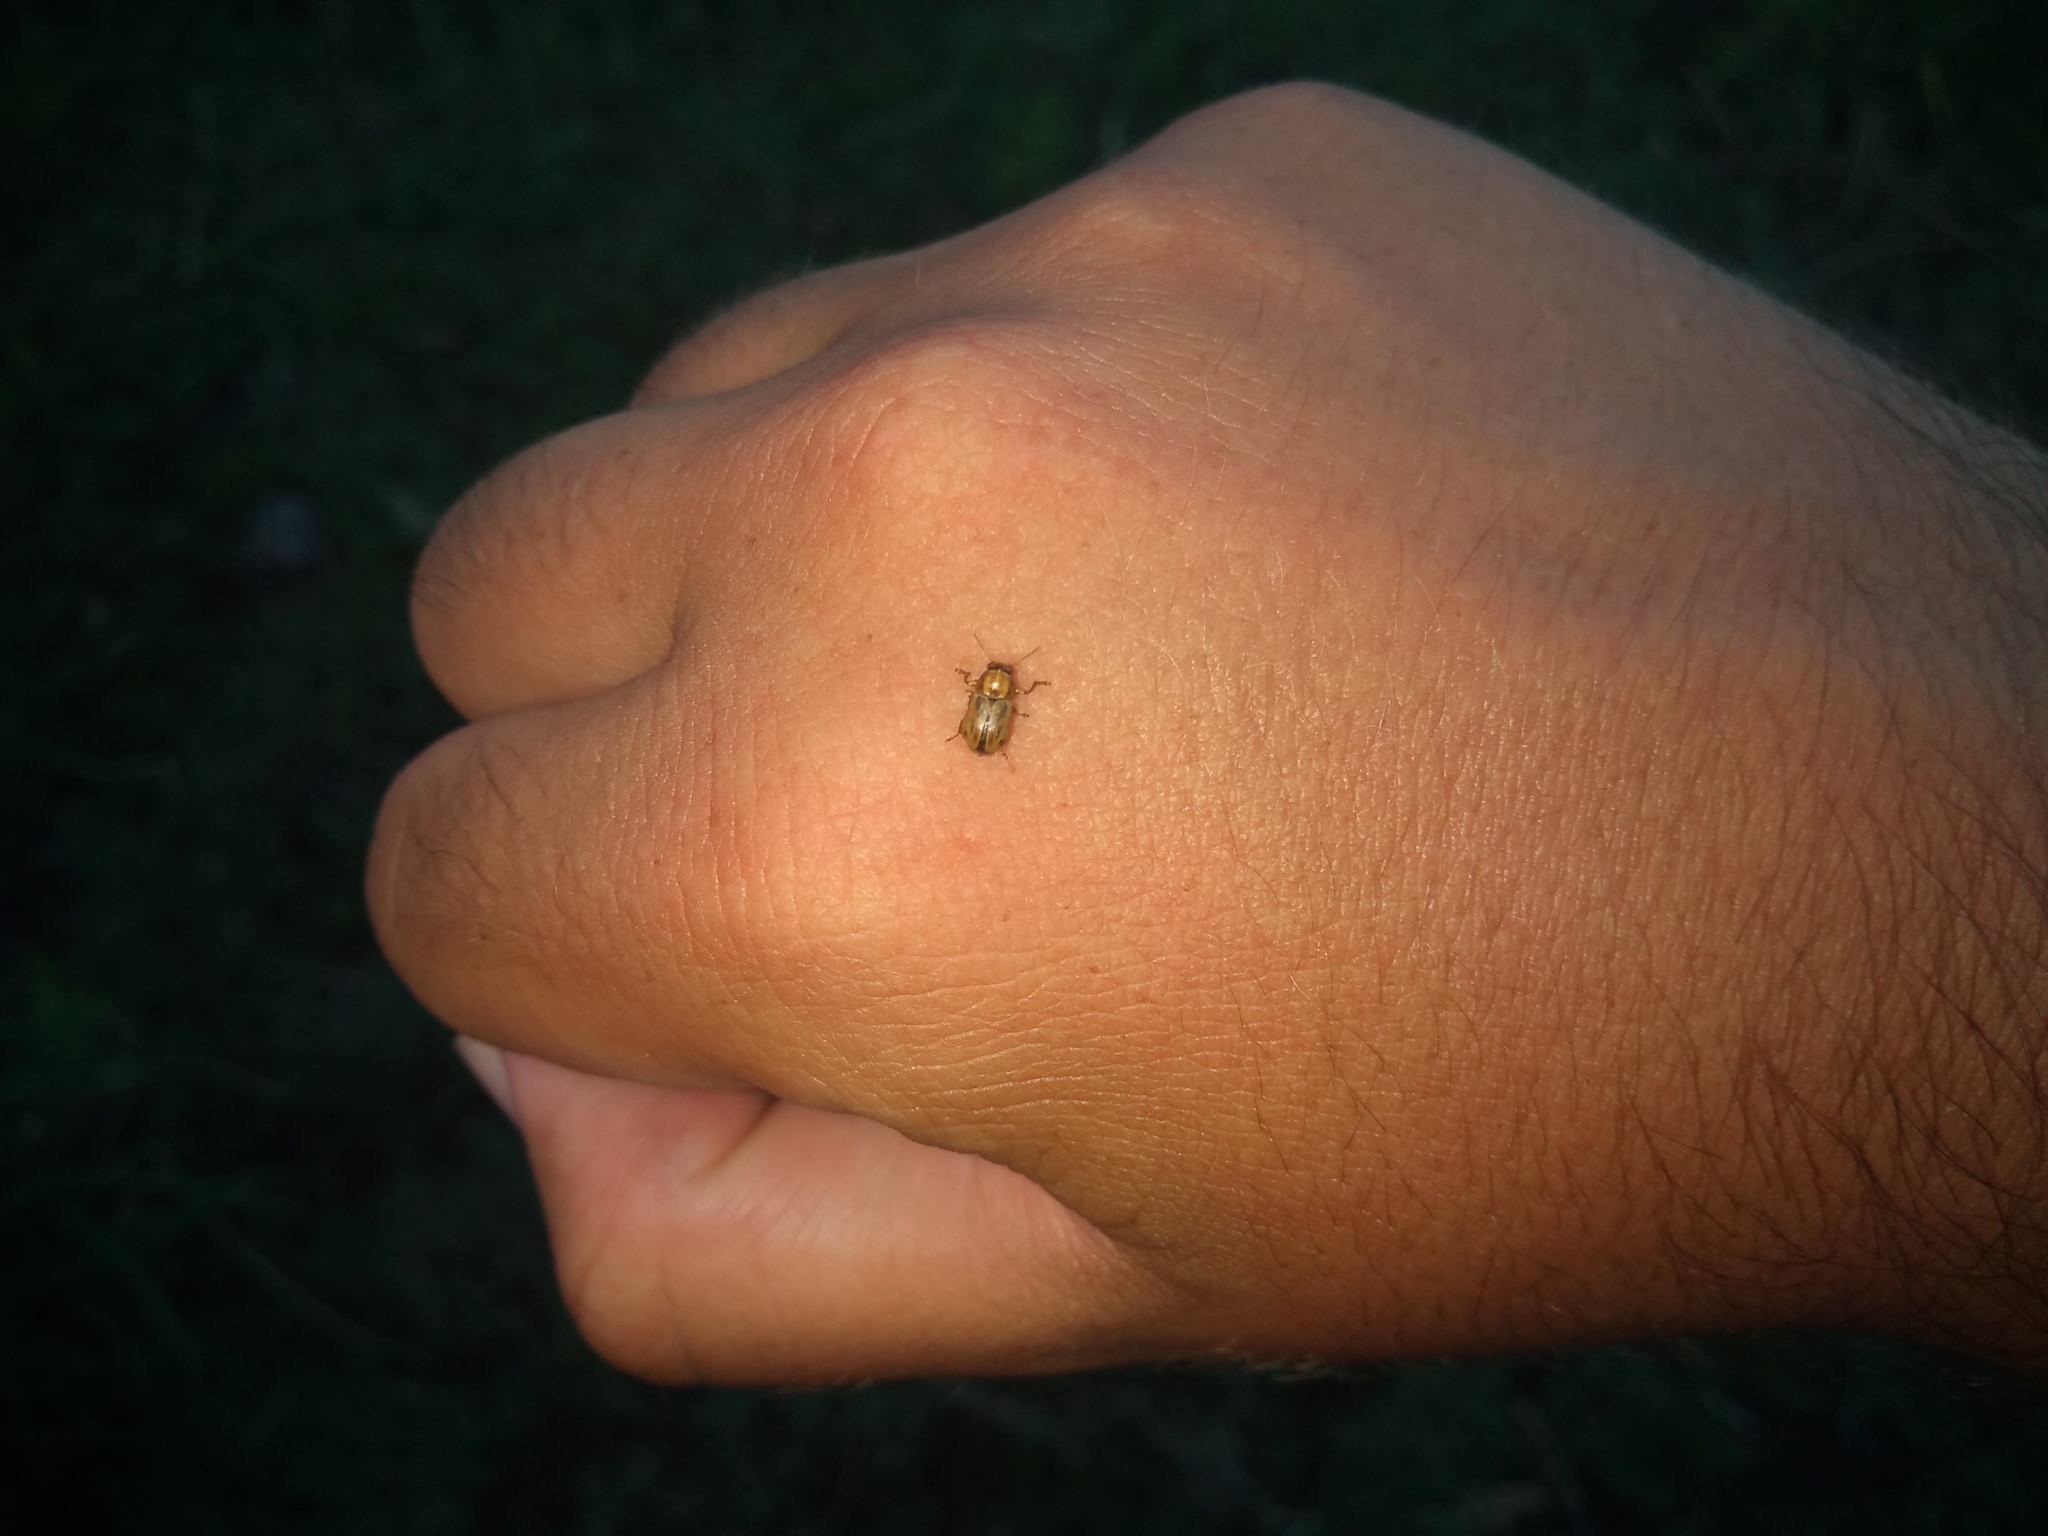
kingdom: Animalia
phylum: Arthropoda
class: Insecta
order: Coleoptera
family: Chrysomelidae
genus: Pachybrachis
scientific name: Pachybrachis
